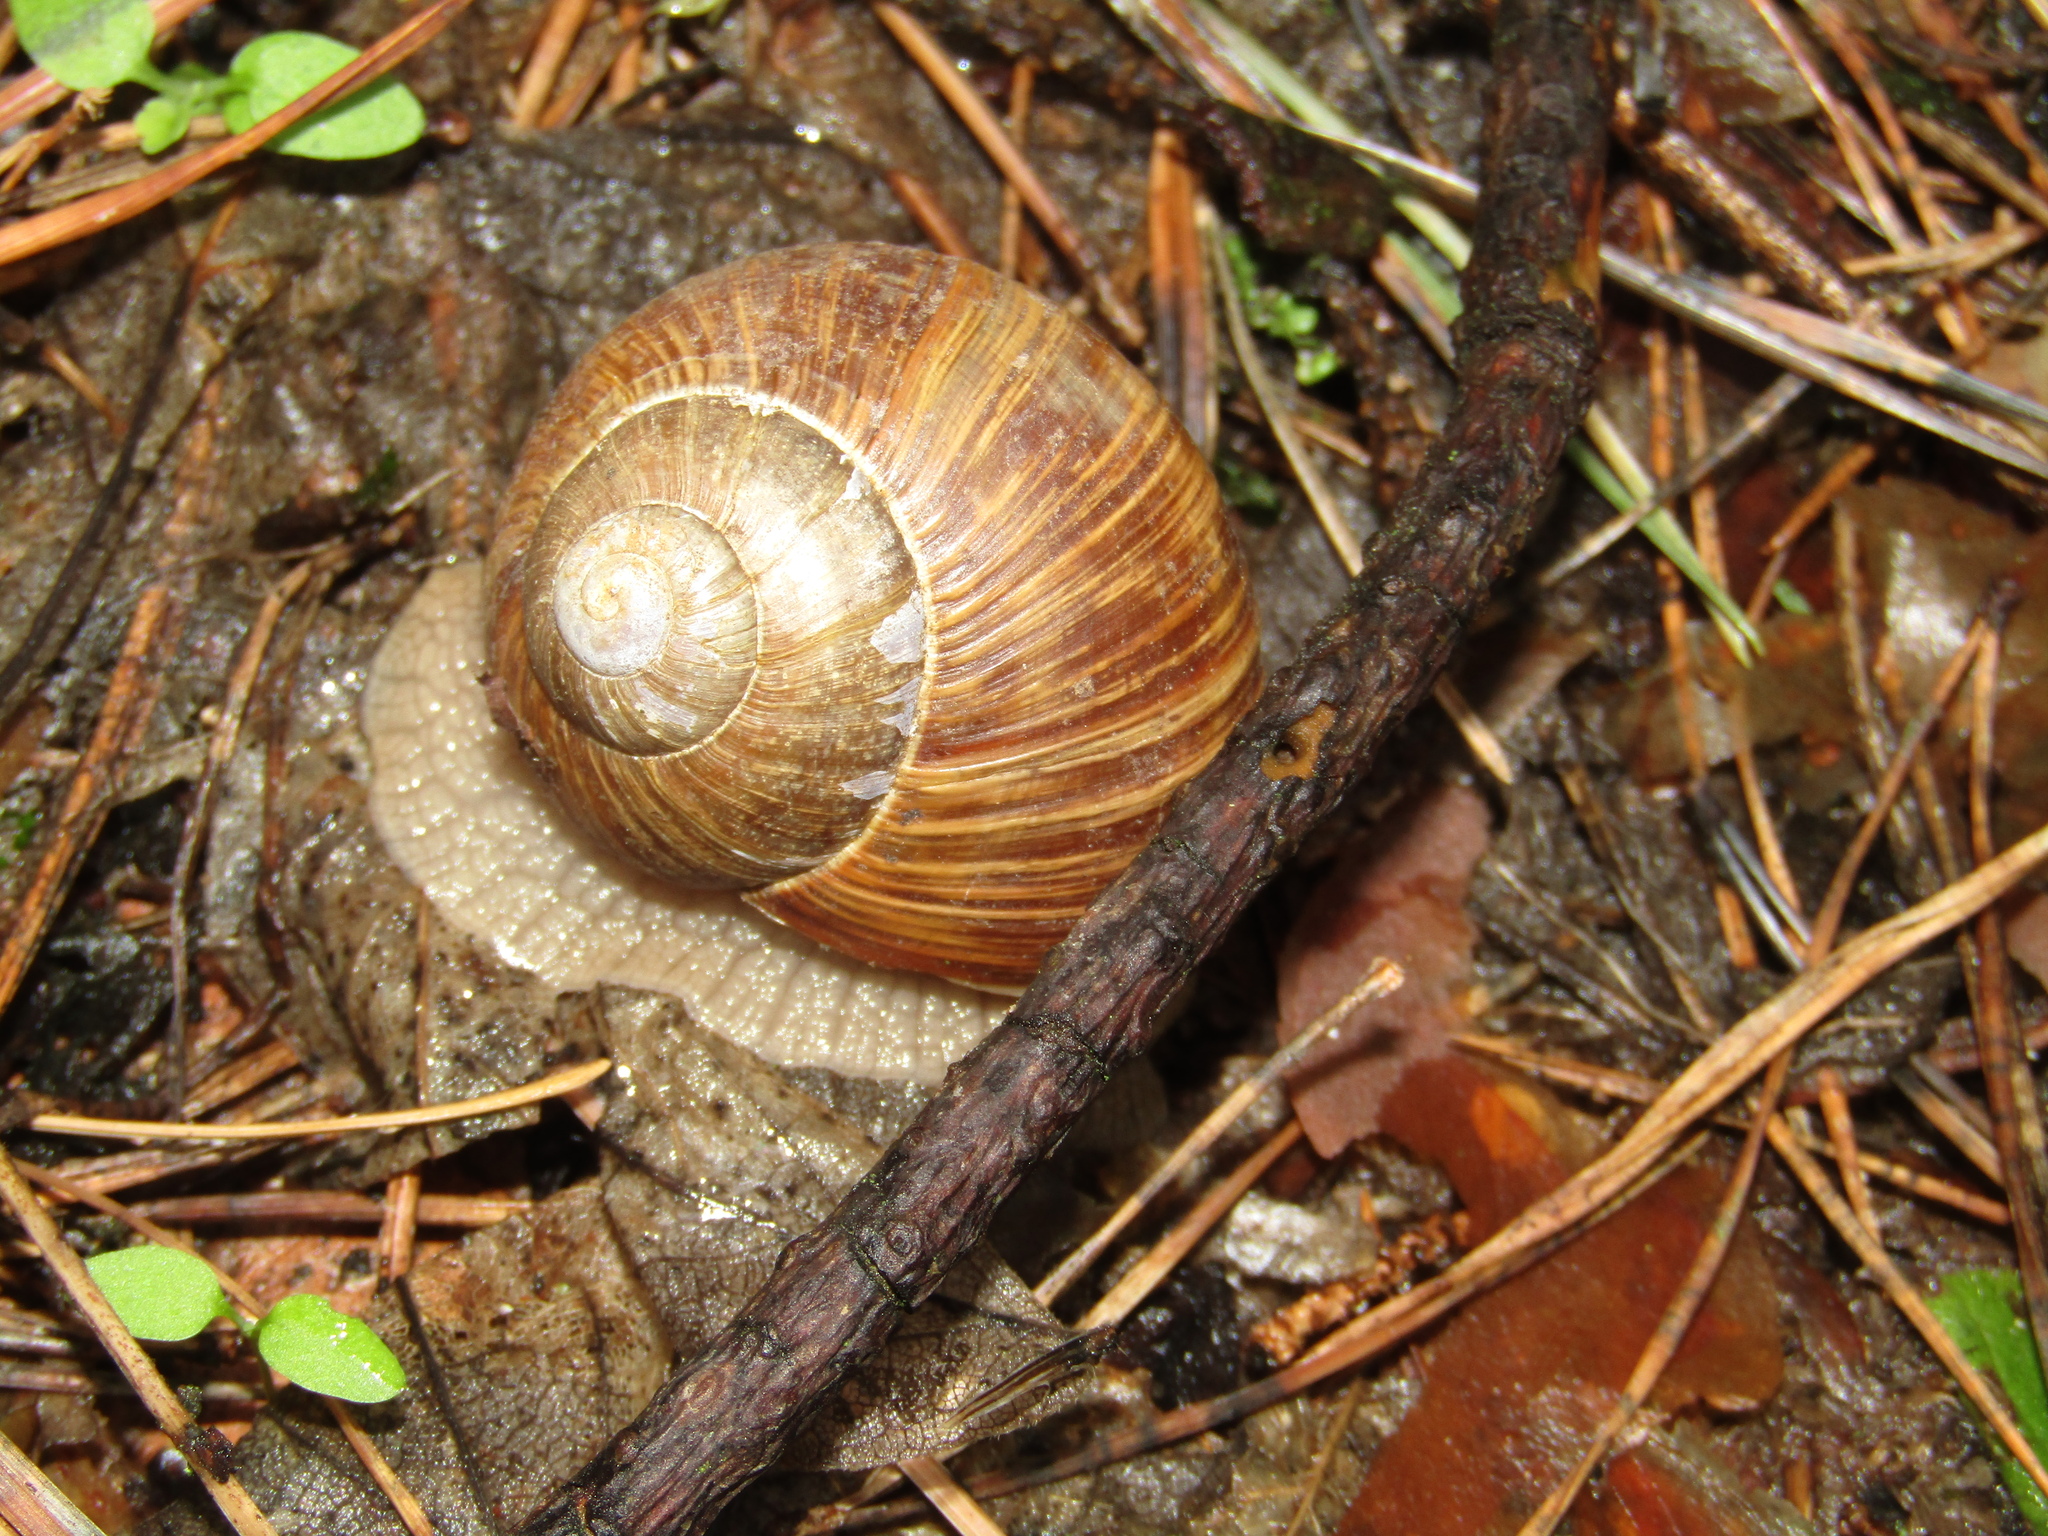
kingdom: Animalia
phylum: Mollusca
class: Gastropoda
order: Stylommatophora
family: Helicidae
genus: Helix
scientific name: Helix pomatia
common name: Roman snail
